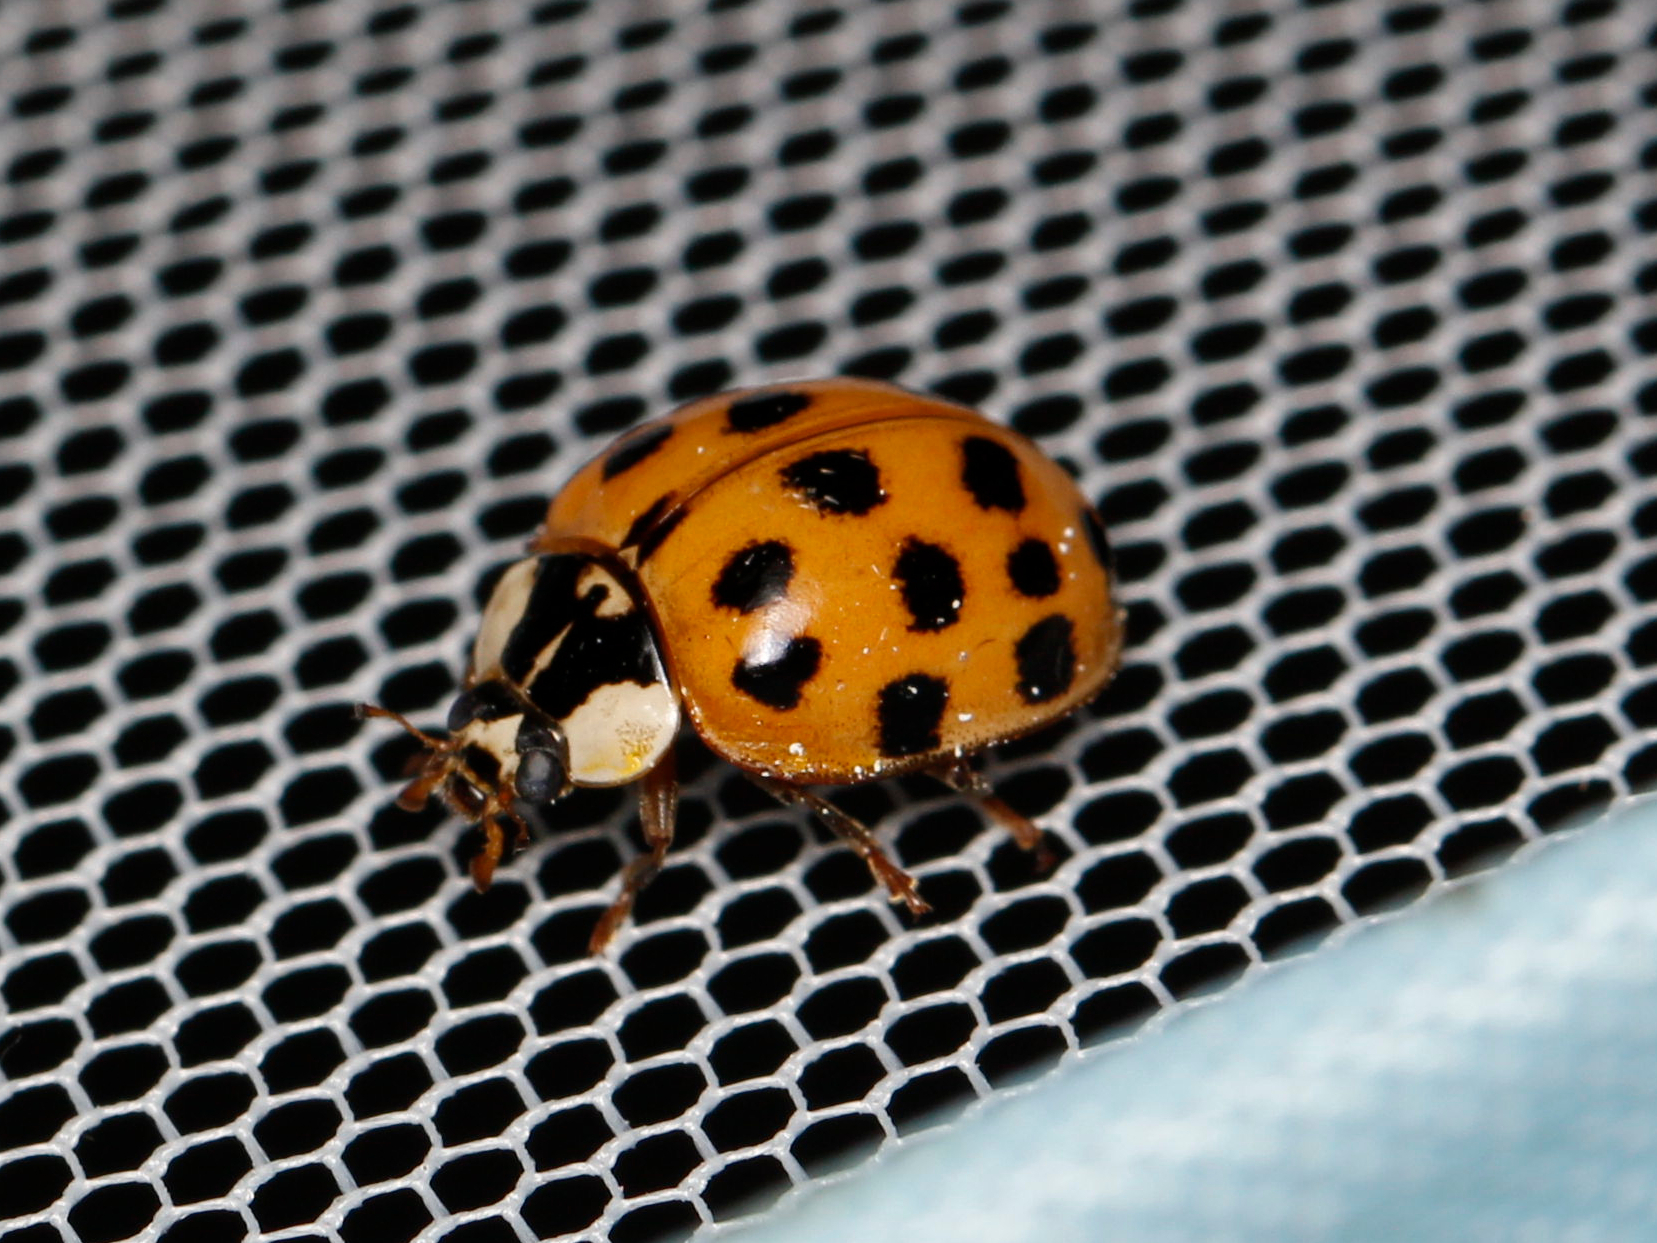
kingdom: Animalia
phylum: Arthropoda
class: Insecta
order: Coleoptera
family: Coccinellidae
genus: Harmonia
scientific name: Harmonia axyridis
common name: Harlequin ladybird
